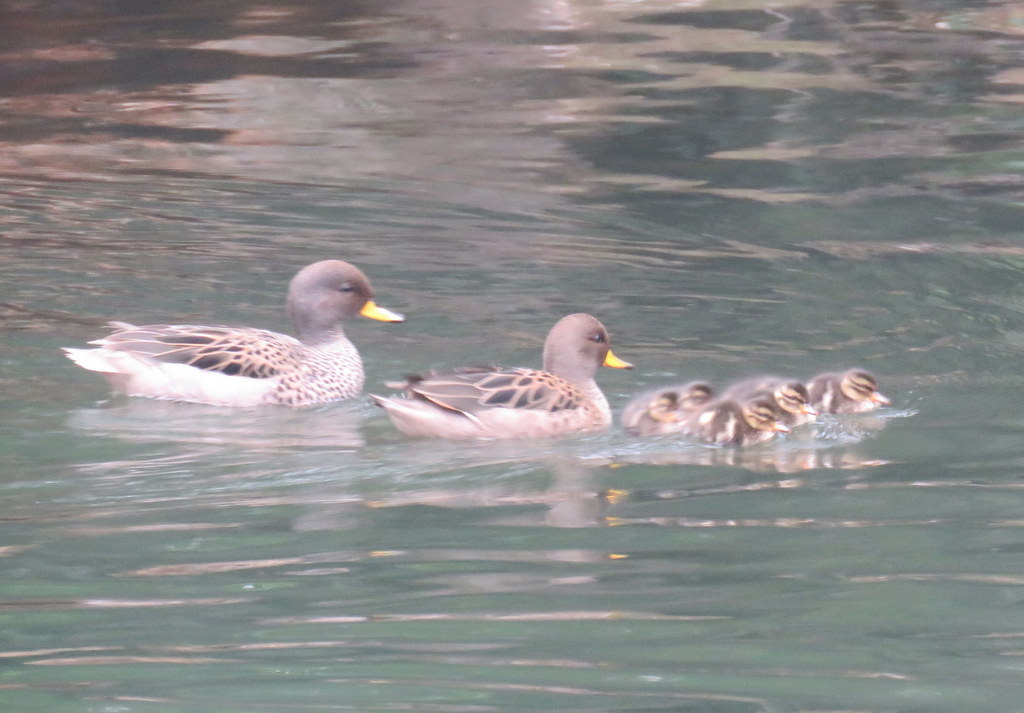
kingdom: Animalia
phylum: Chordata
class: Aves
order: Anseriformes
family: Anatidae
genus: Anas
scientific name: Anas flavirostris
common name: Yellow-billed teal
